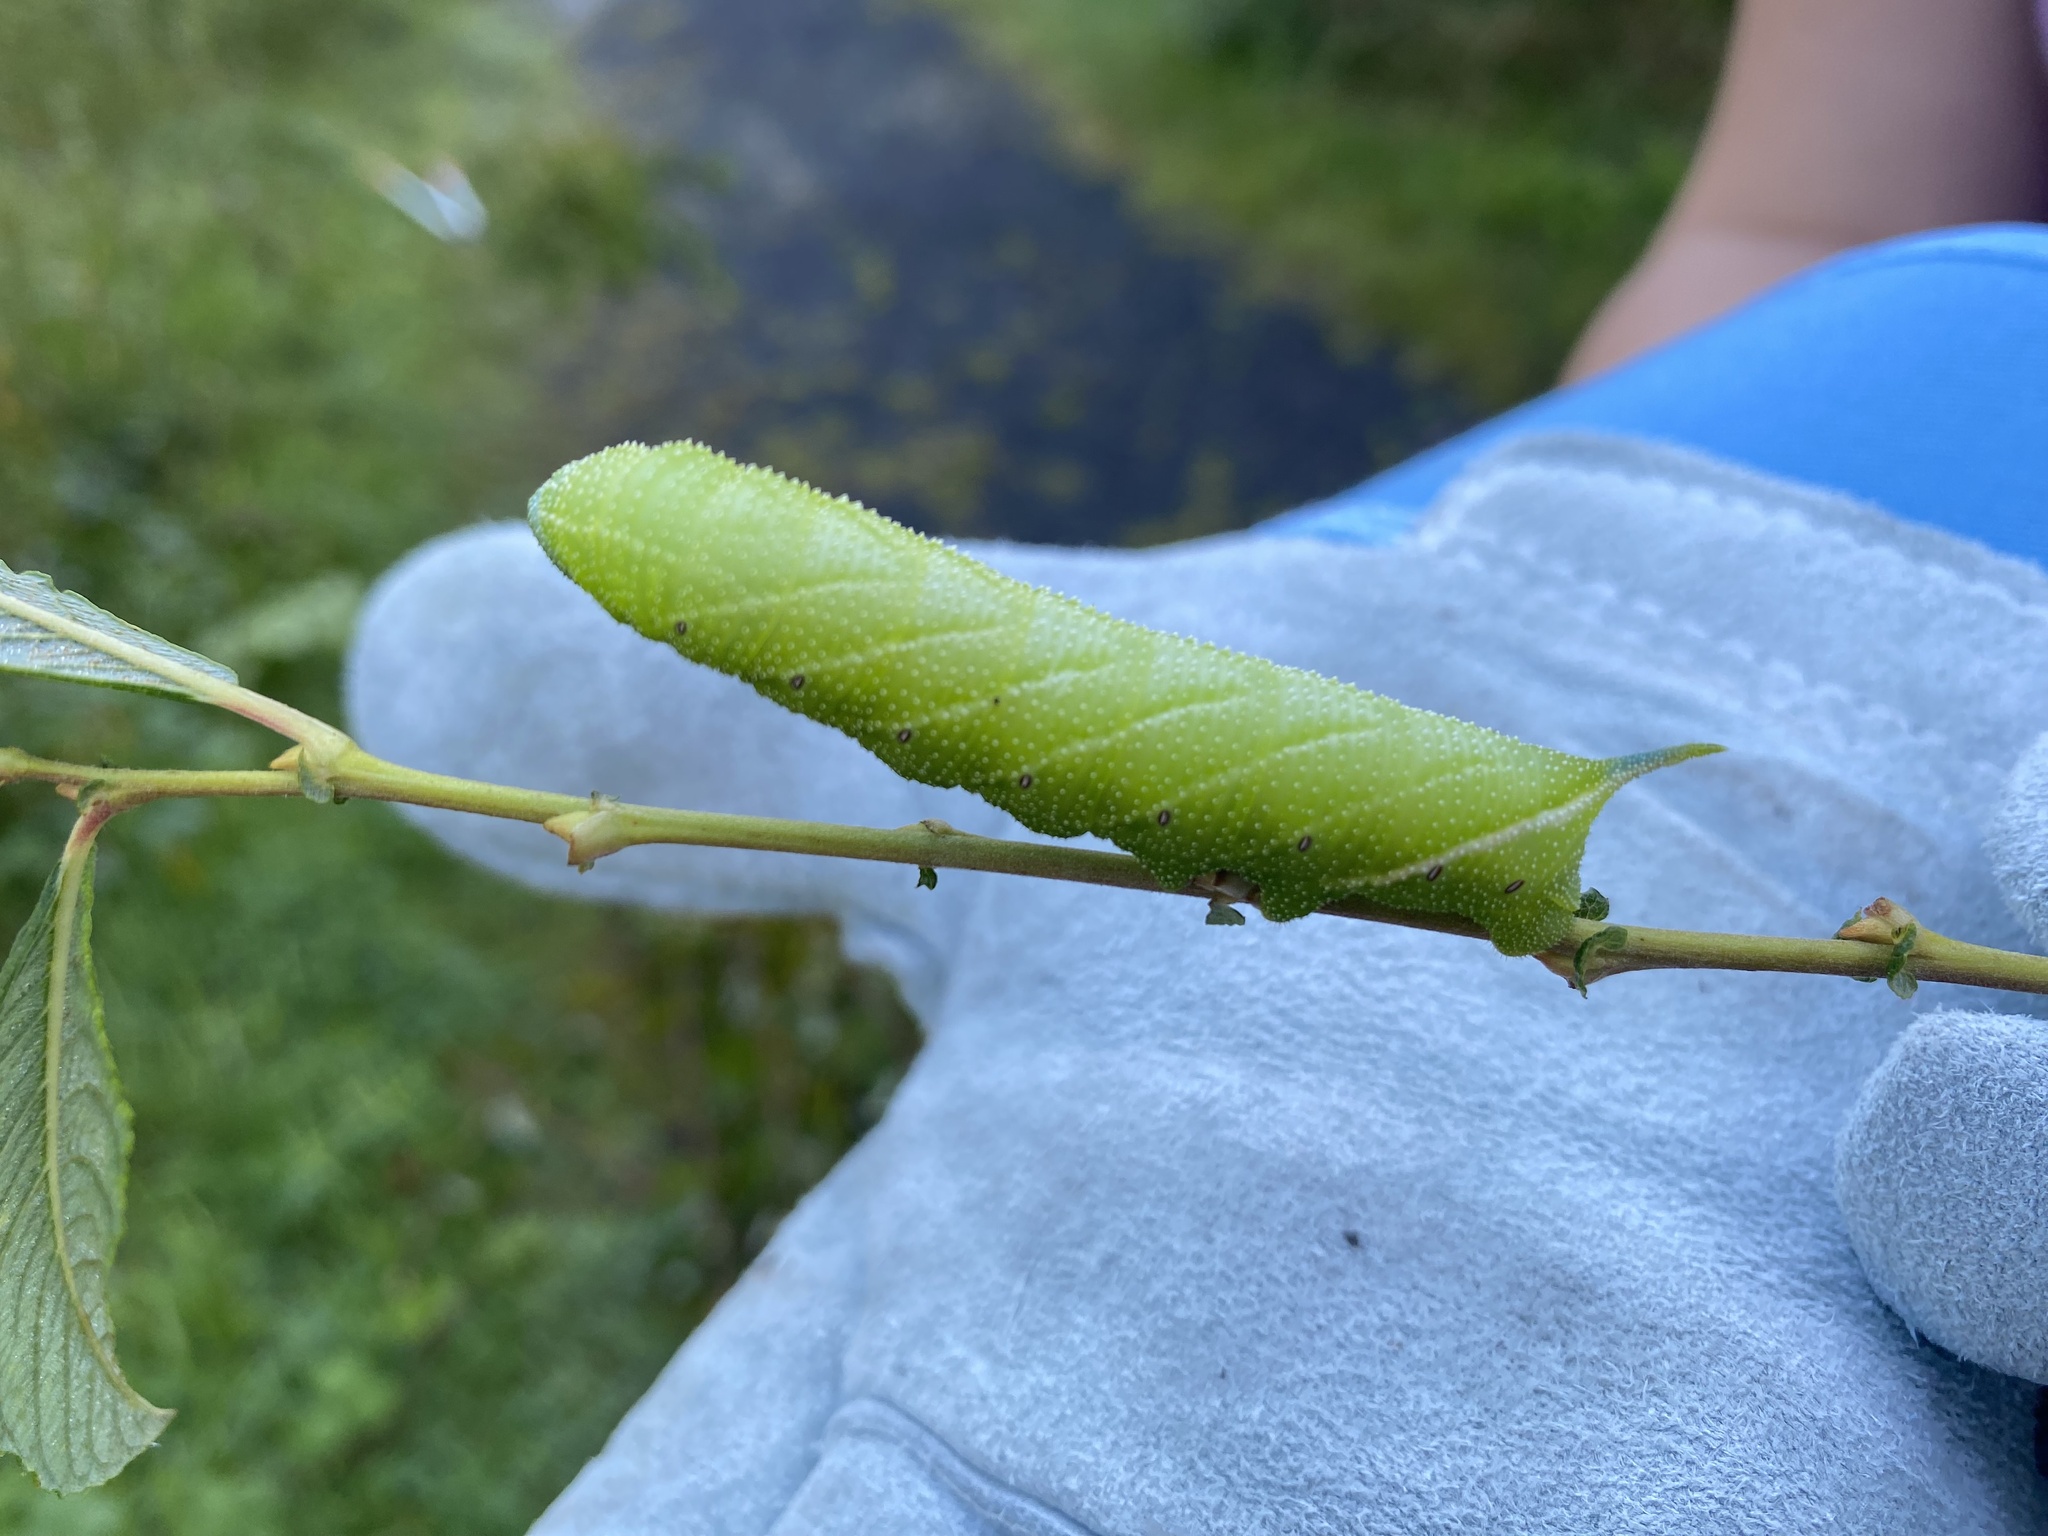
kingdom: Animalia
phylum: Arthropoda
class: Insecta
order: Lepidoptera
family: Sphingidae
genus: Smerinthus
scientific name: Smerinthus ocellata
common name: Eyed hawk-moth
